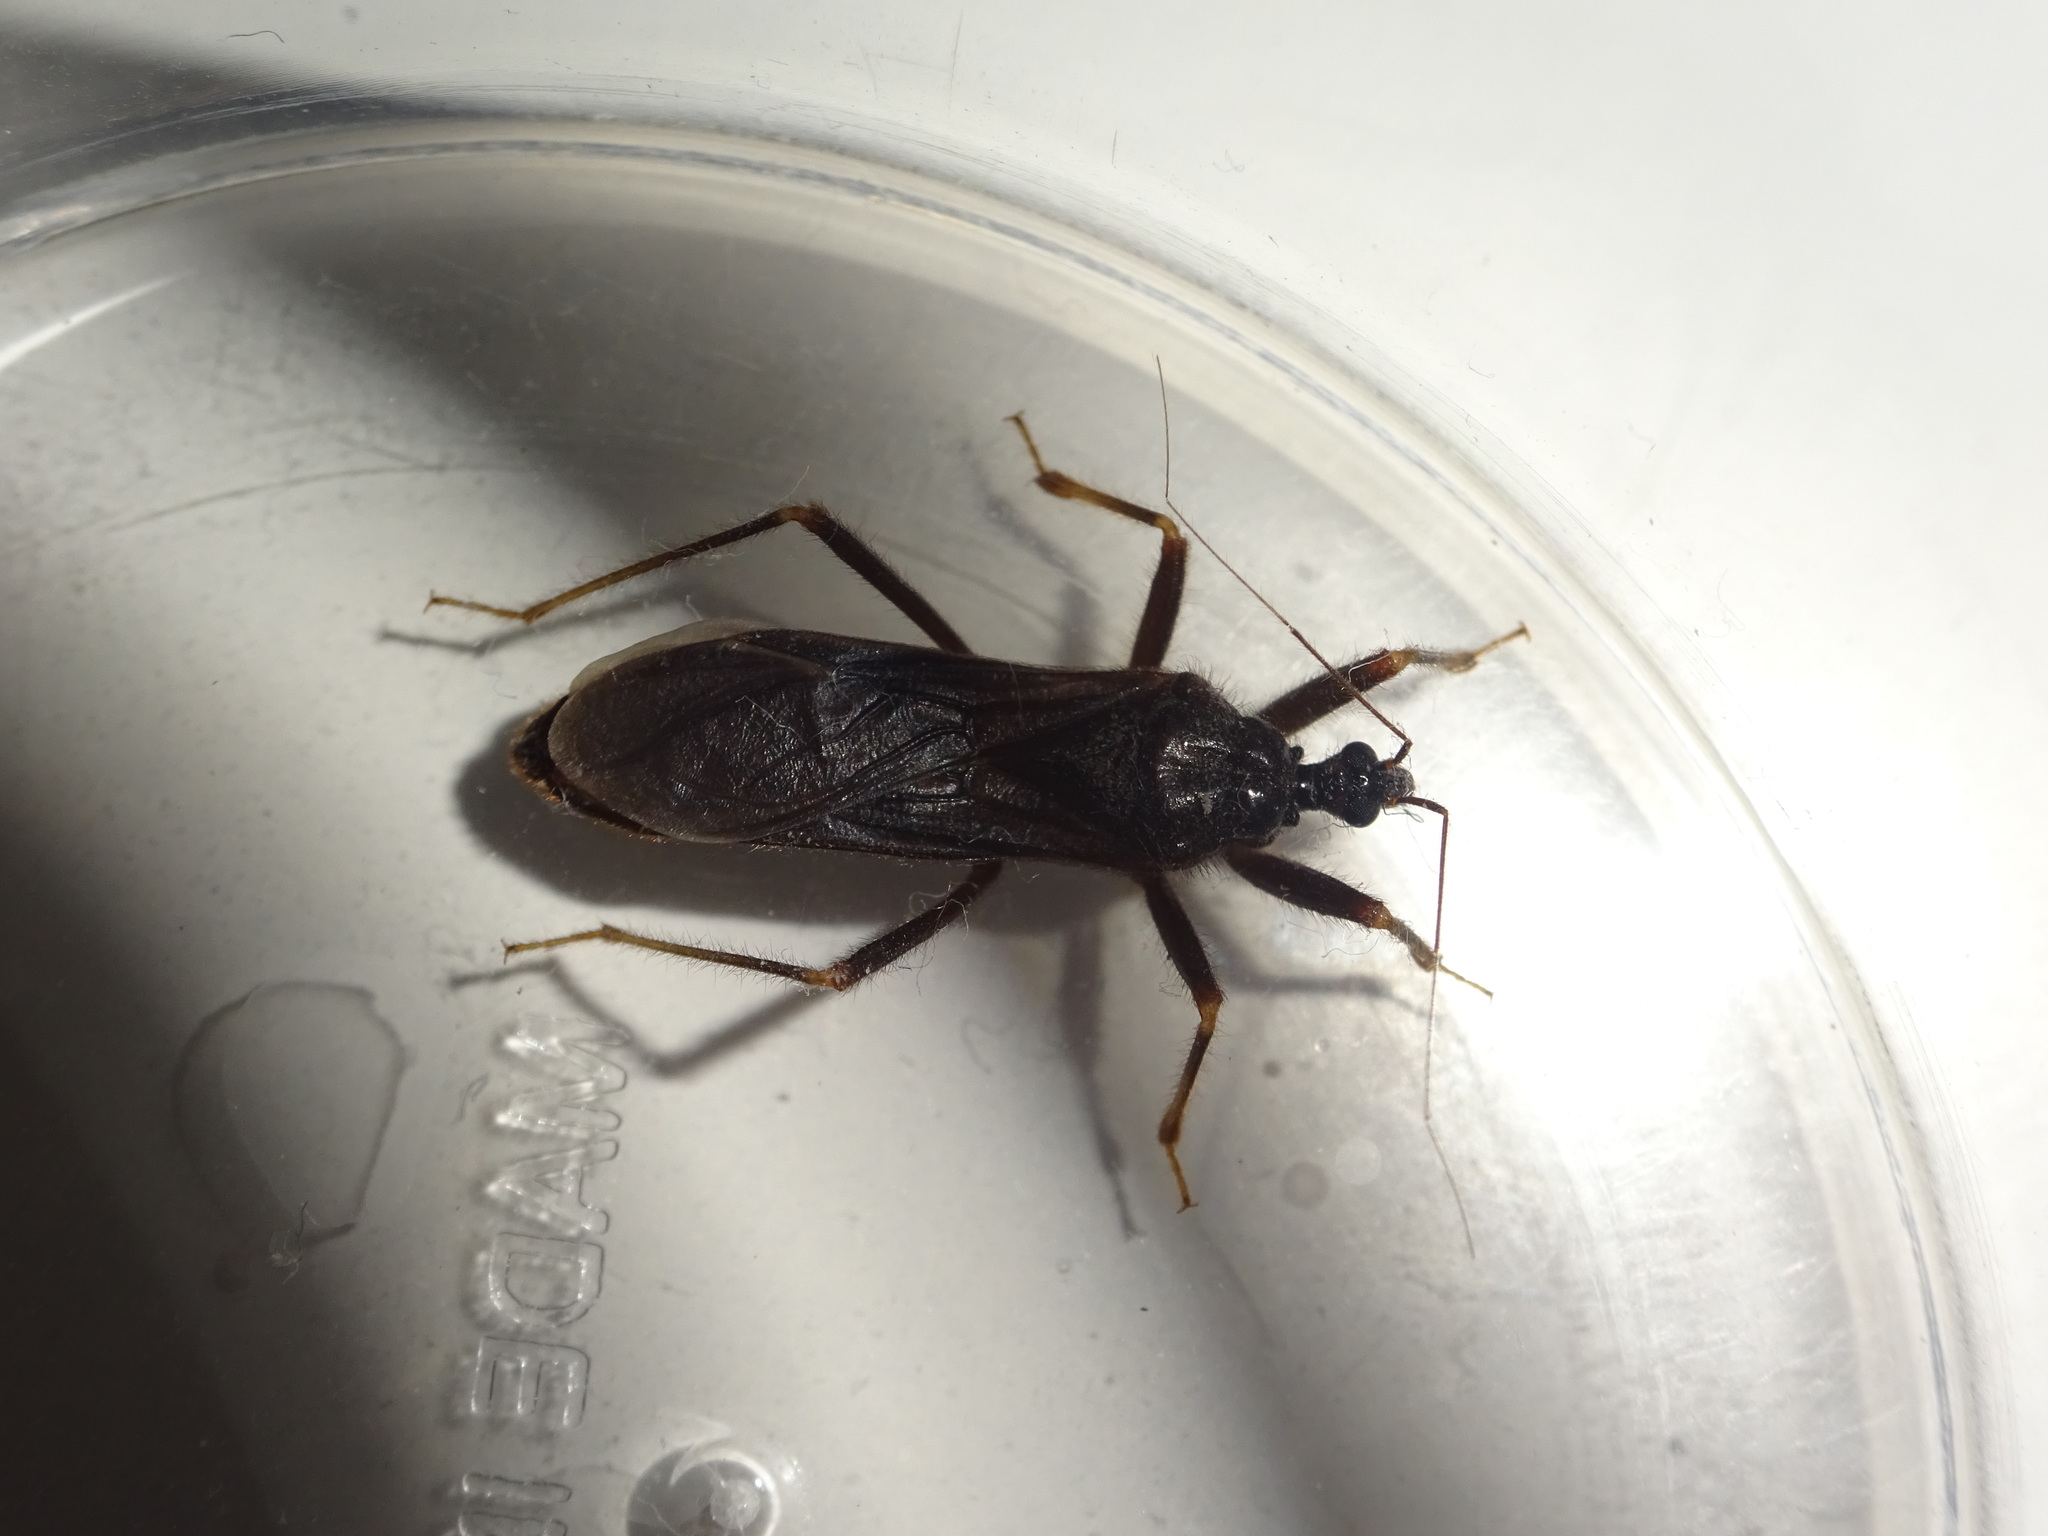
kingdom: Animalia
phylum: Arthropoda
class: Insecta
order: Hemiptera
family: Reduviidae
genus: Reduvius
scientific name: Reduvius personatus
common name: Masked hunter
